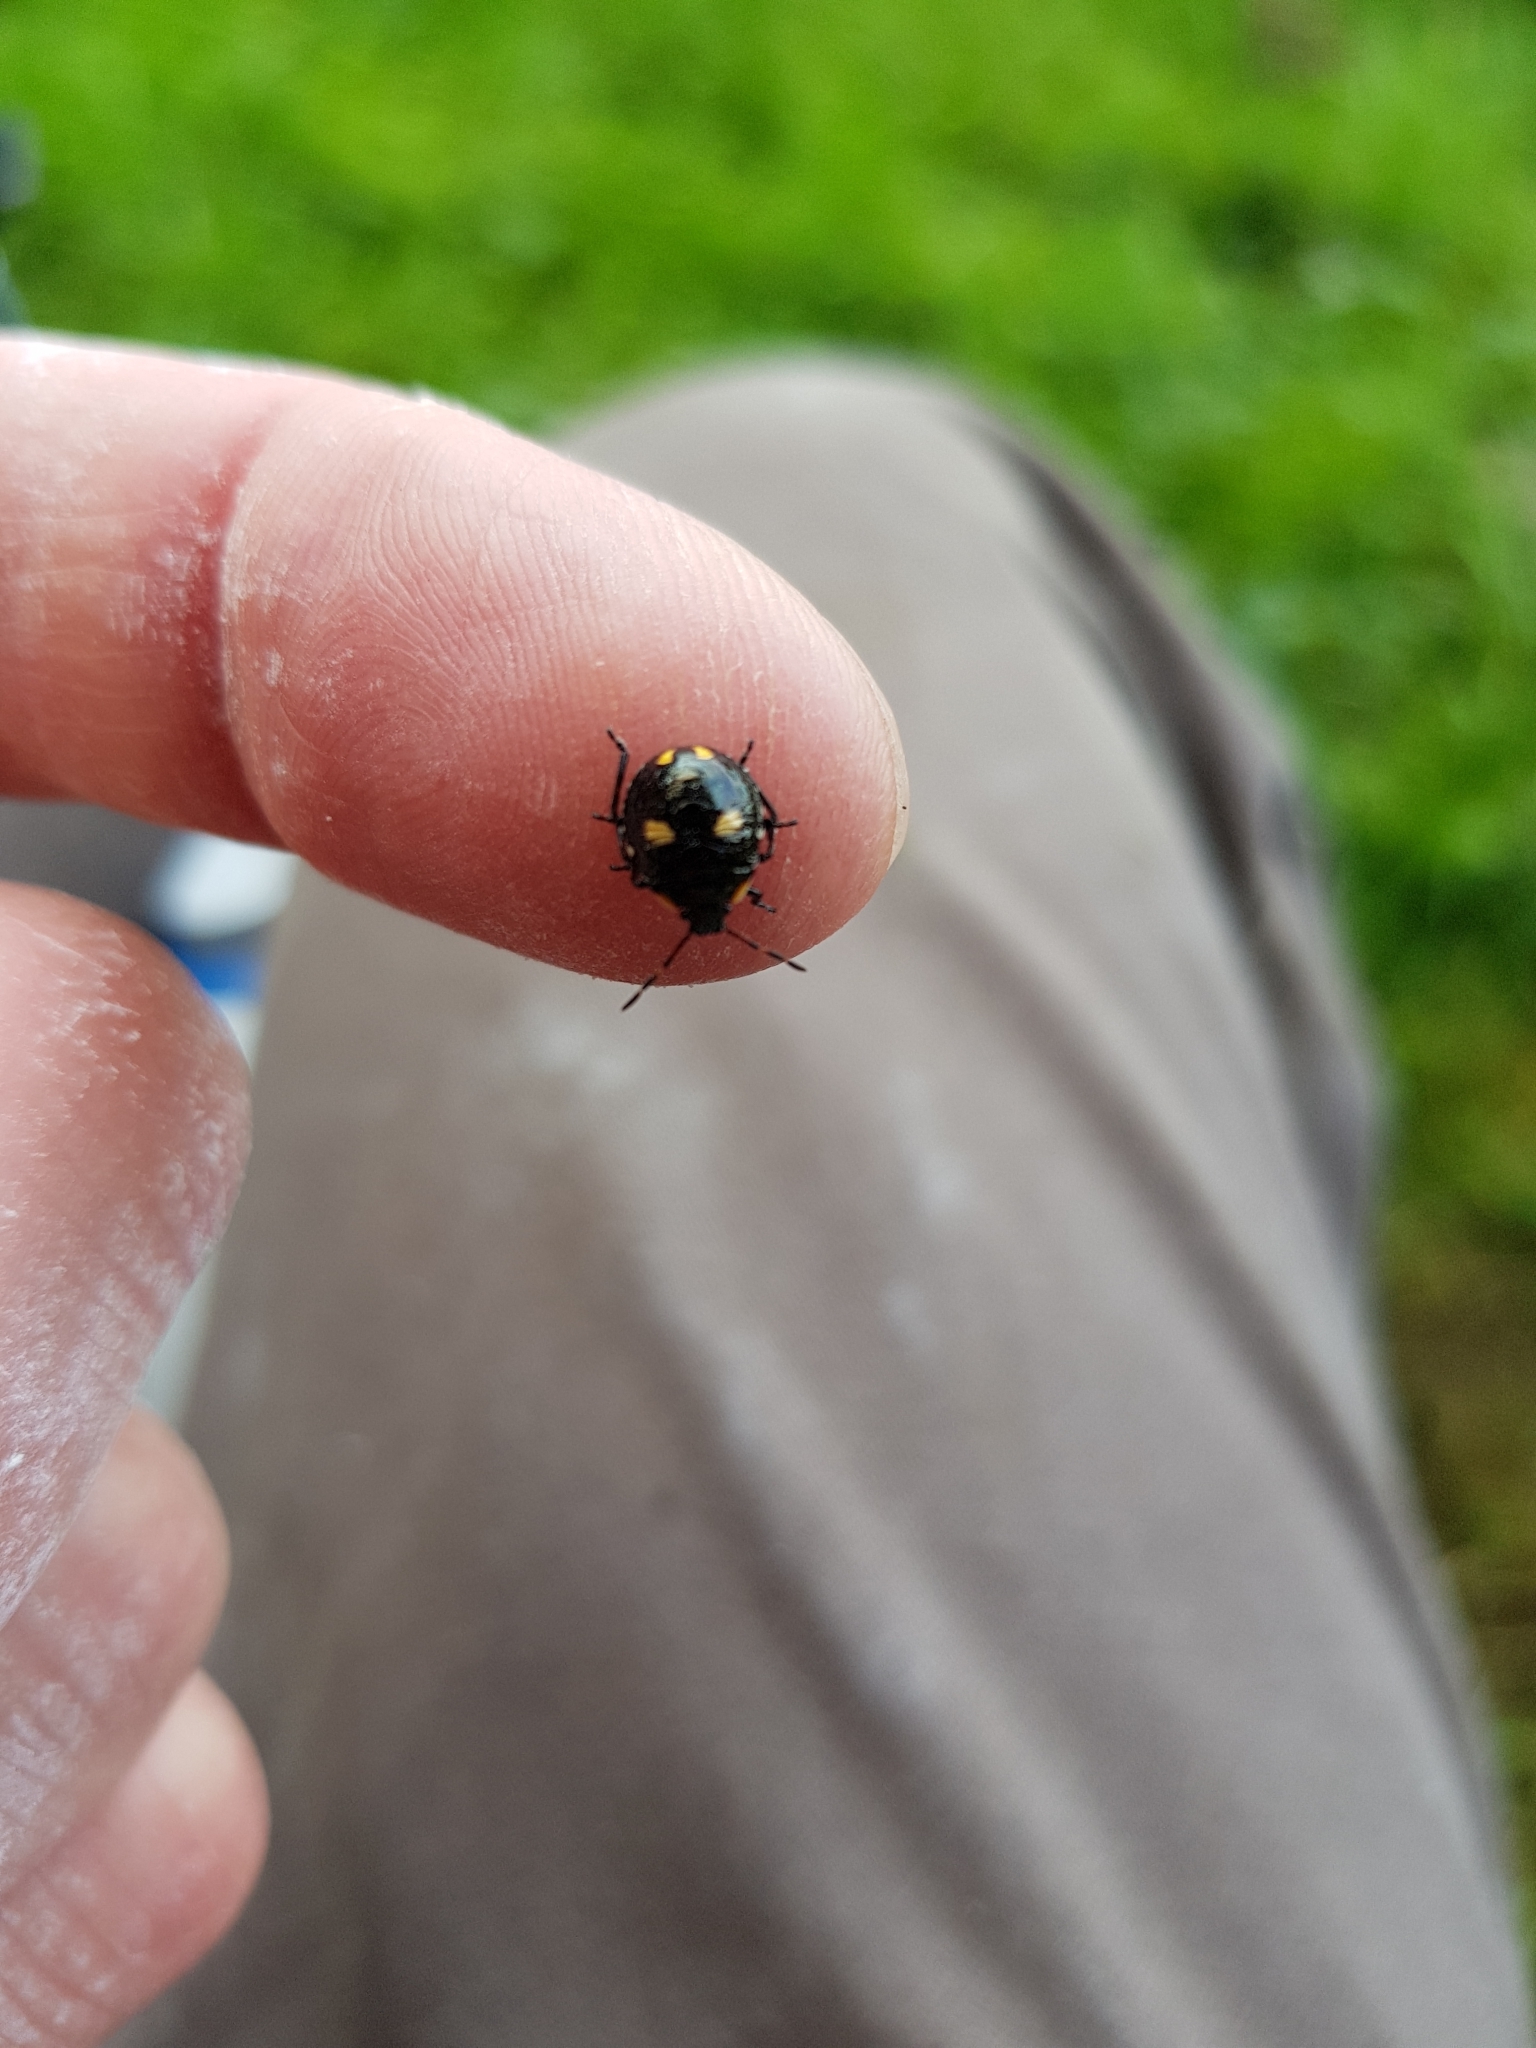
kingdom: Animalia
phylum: Arthropoda
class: Insecta
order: Hemiptera
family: Pentatomidae
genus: Cermatulus
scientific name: Cermatulus nasalis
